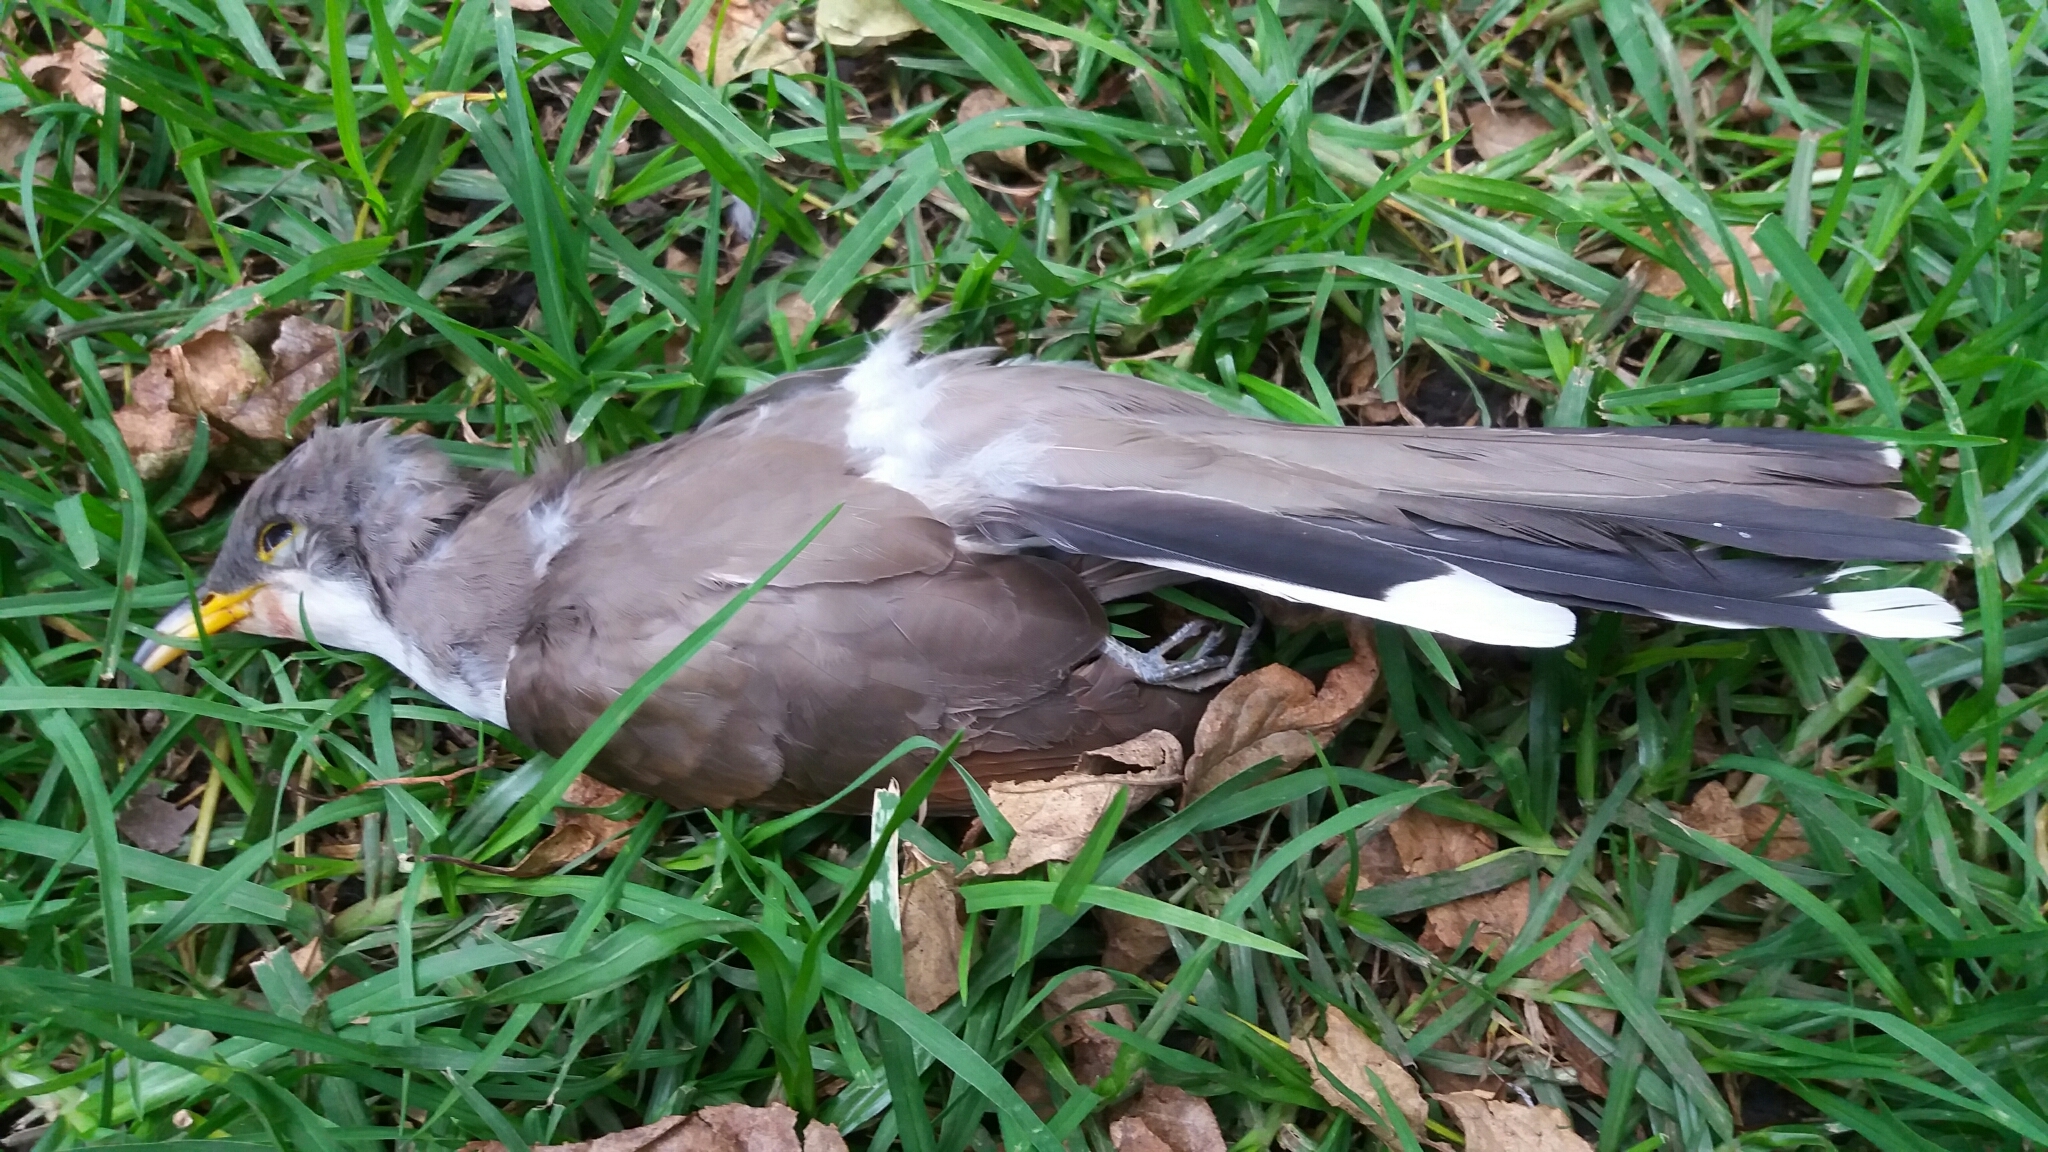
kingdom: Animalia
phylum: Chordata
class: Aves
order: Cuculiformes
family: Cuculidae
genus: Coccyzus
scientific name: Coccyzus americanus
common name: Yellow-billed cuckoo
